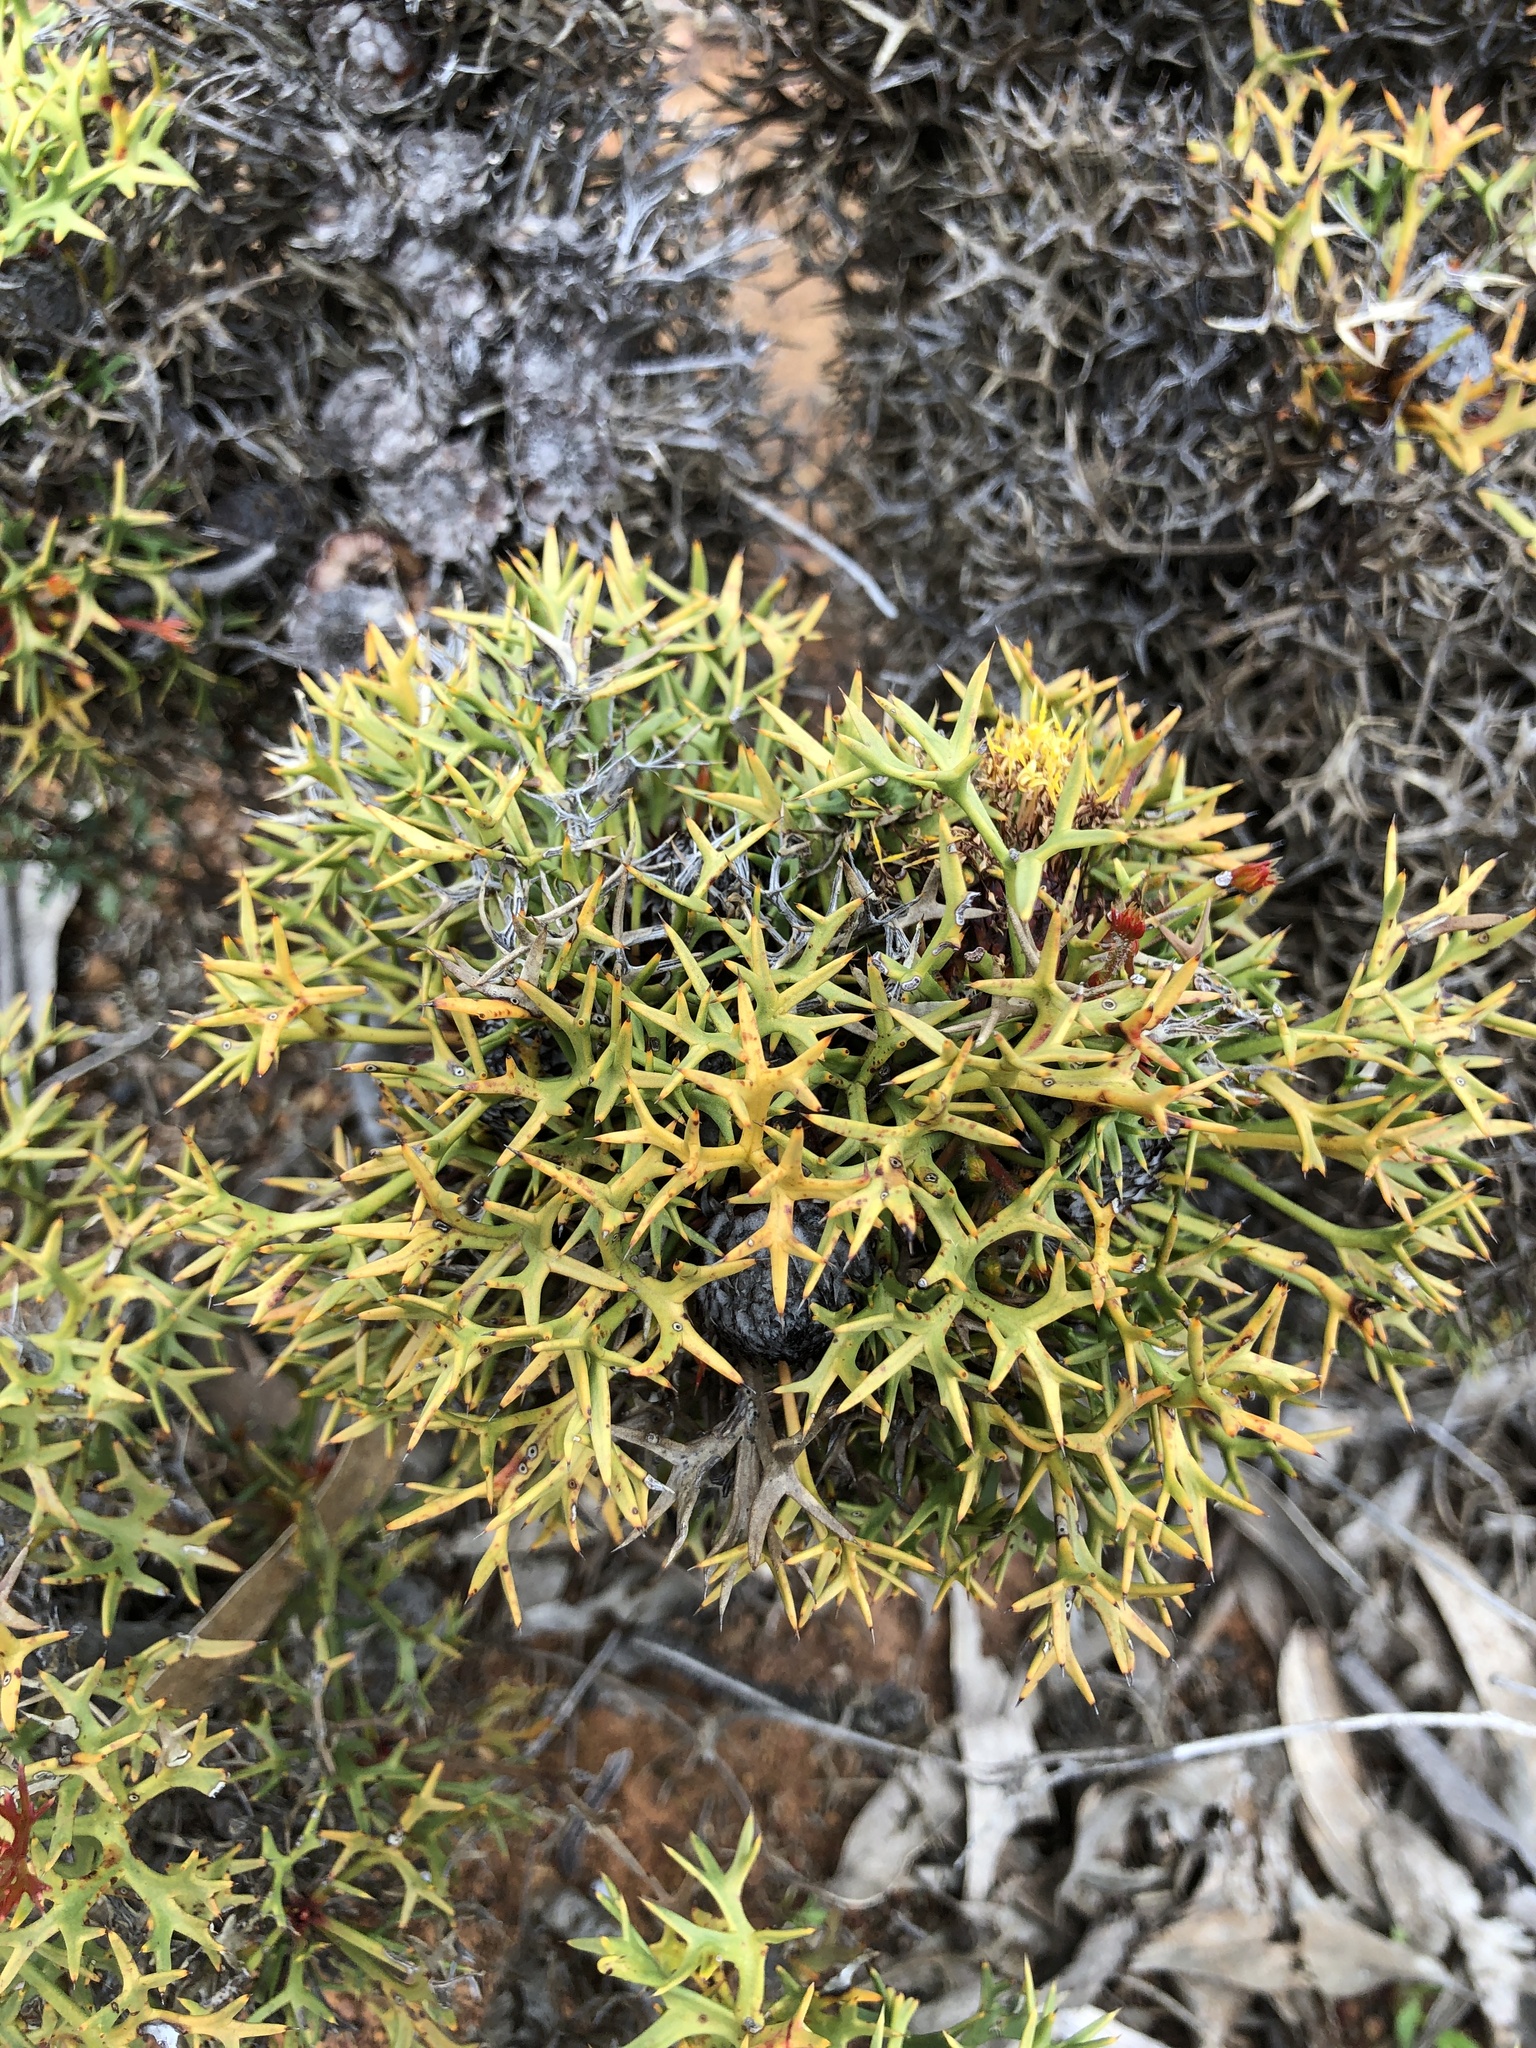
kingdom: Plantae
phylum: Tracheophyta
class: Magnoliopsida
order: Proteales
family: Proteaceae
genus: Isopogon
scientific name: Isopogon ceratophyllus
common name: Horny cone-bush
